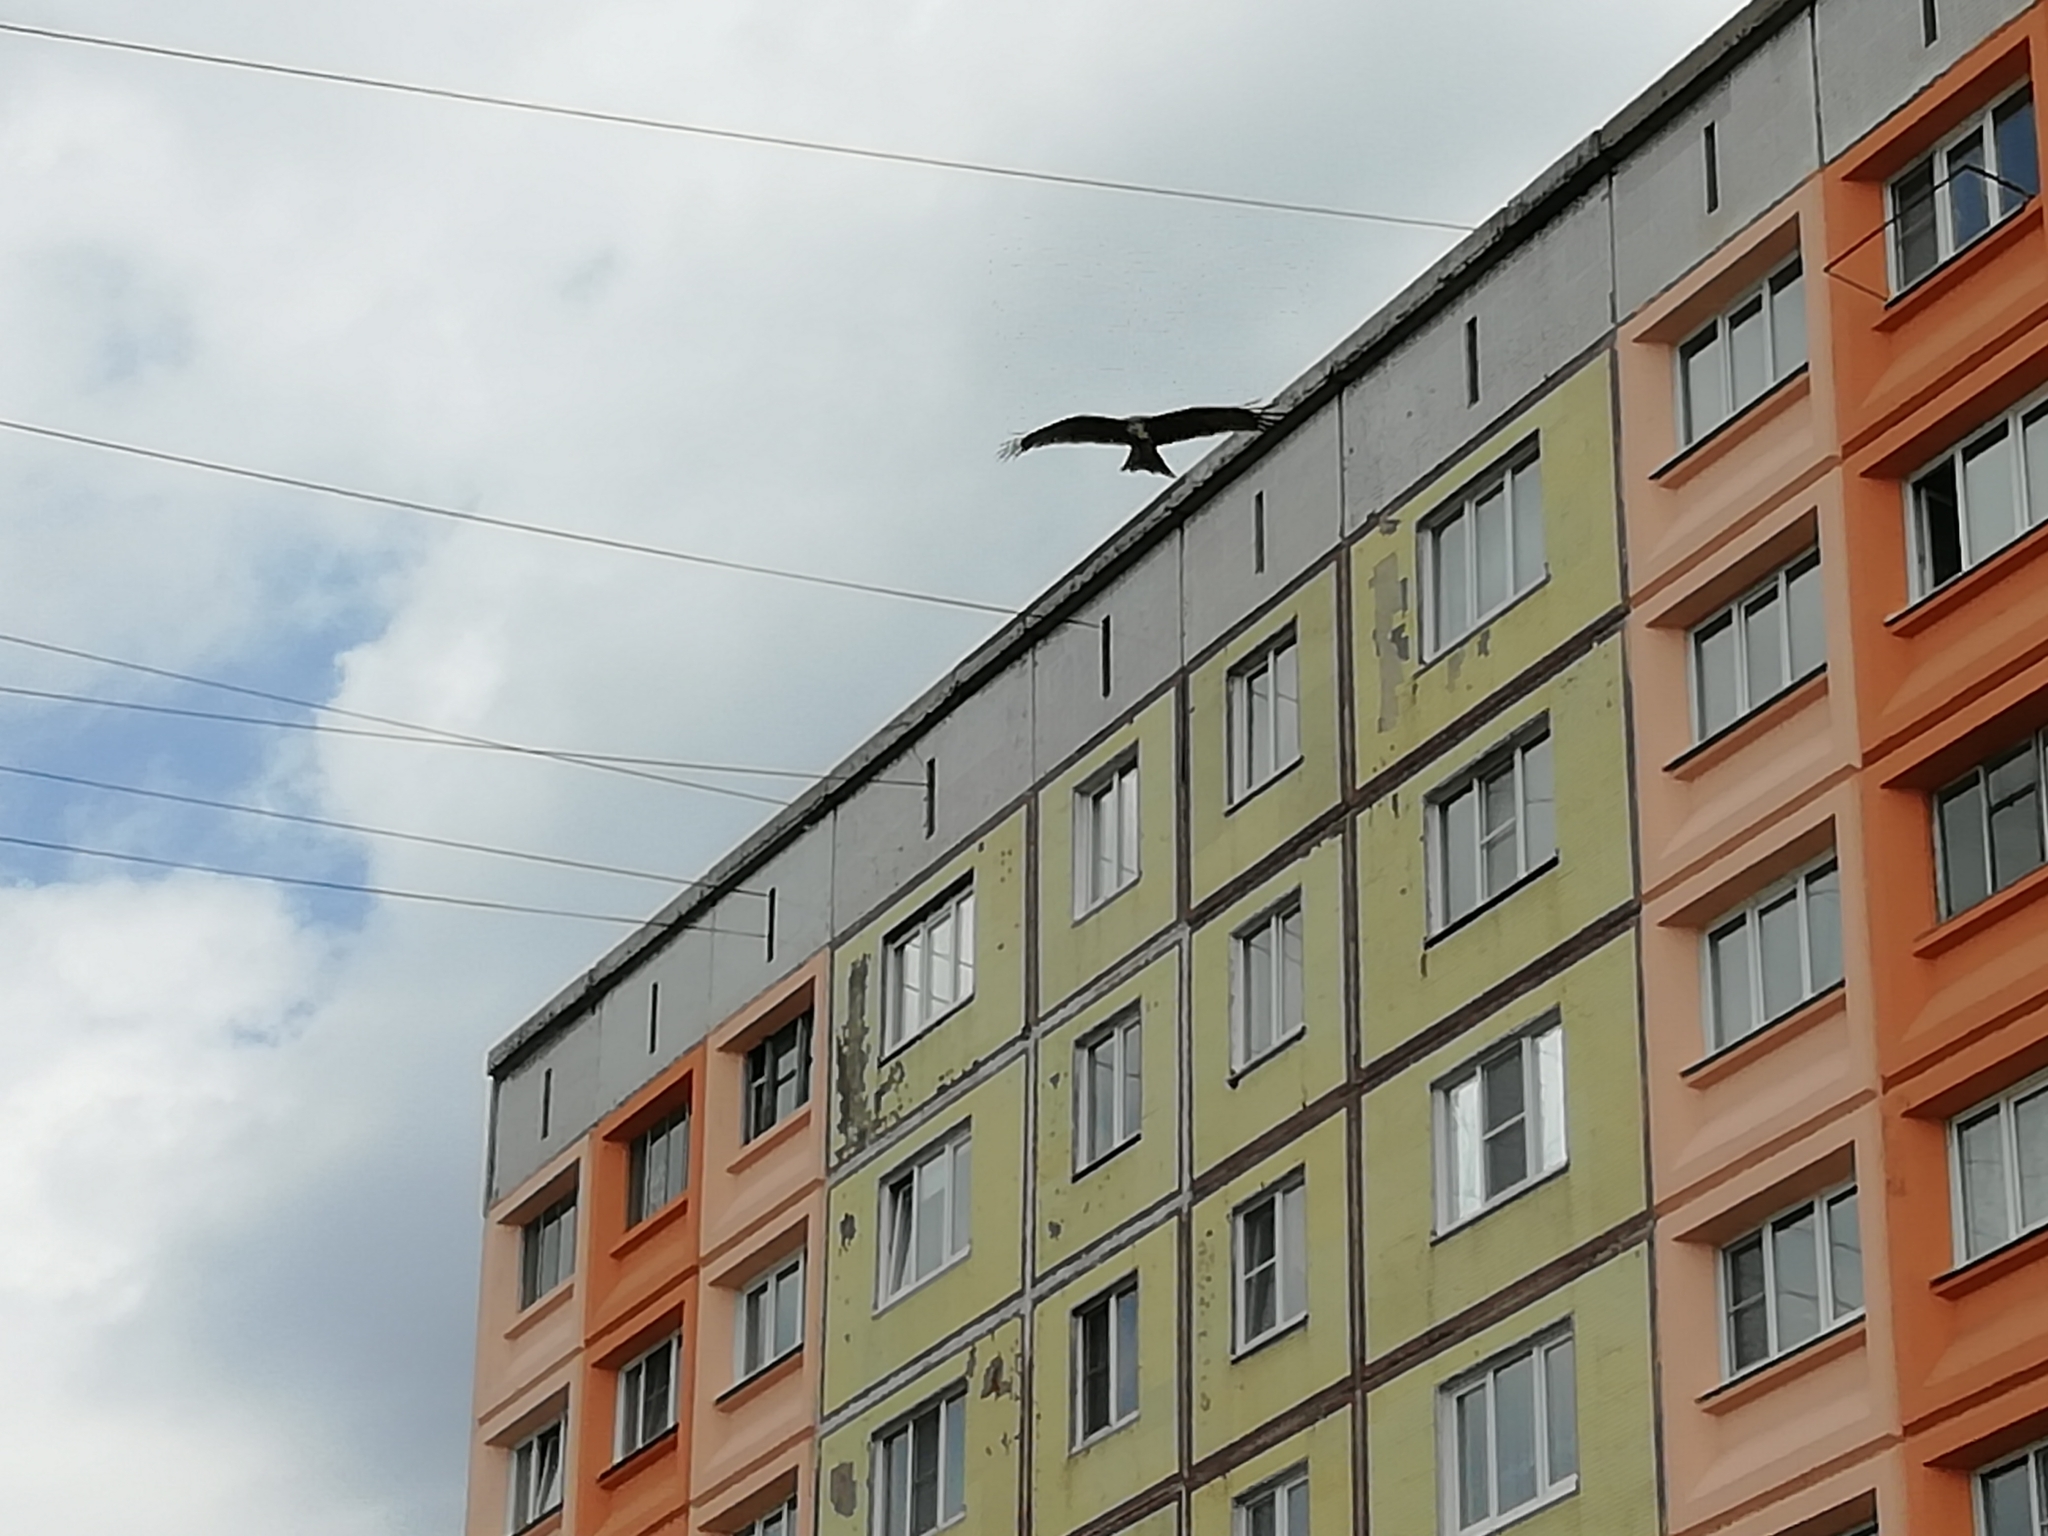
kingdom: Animalia
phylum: Chordata
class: Aves
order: Accipitriformes
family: Accipitridae
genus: Milvus
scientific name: Milvus migrans
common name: Black kite
